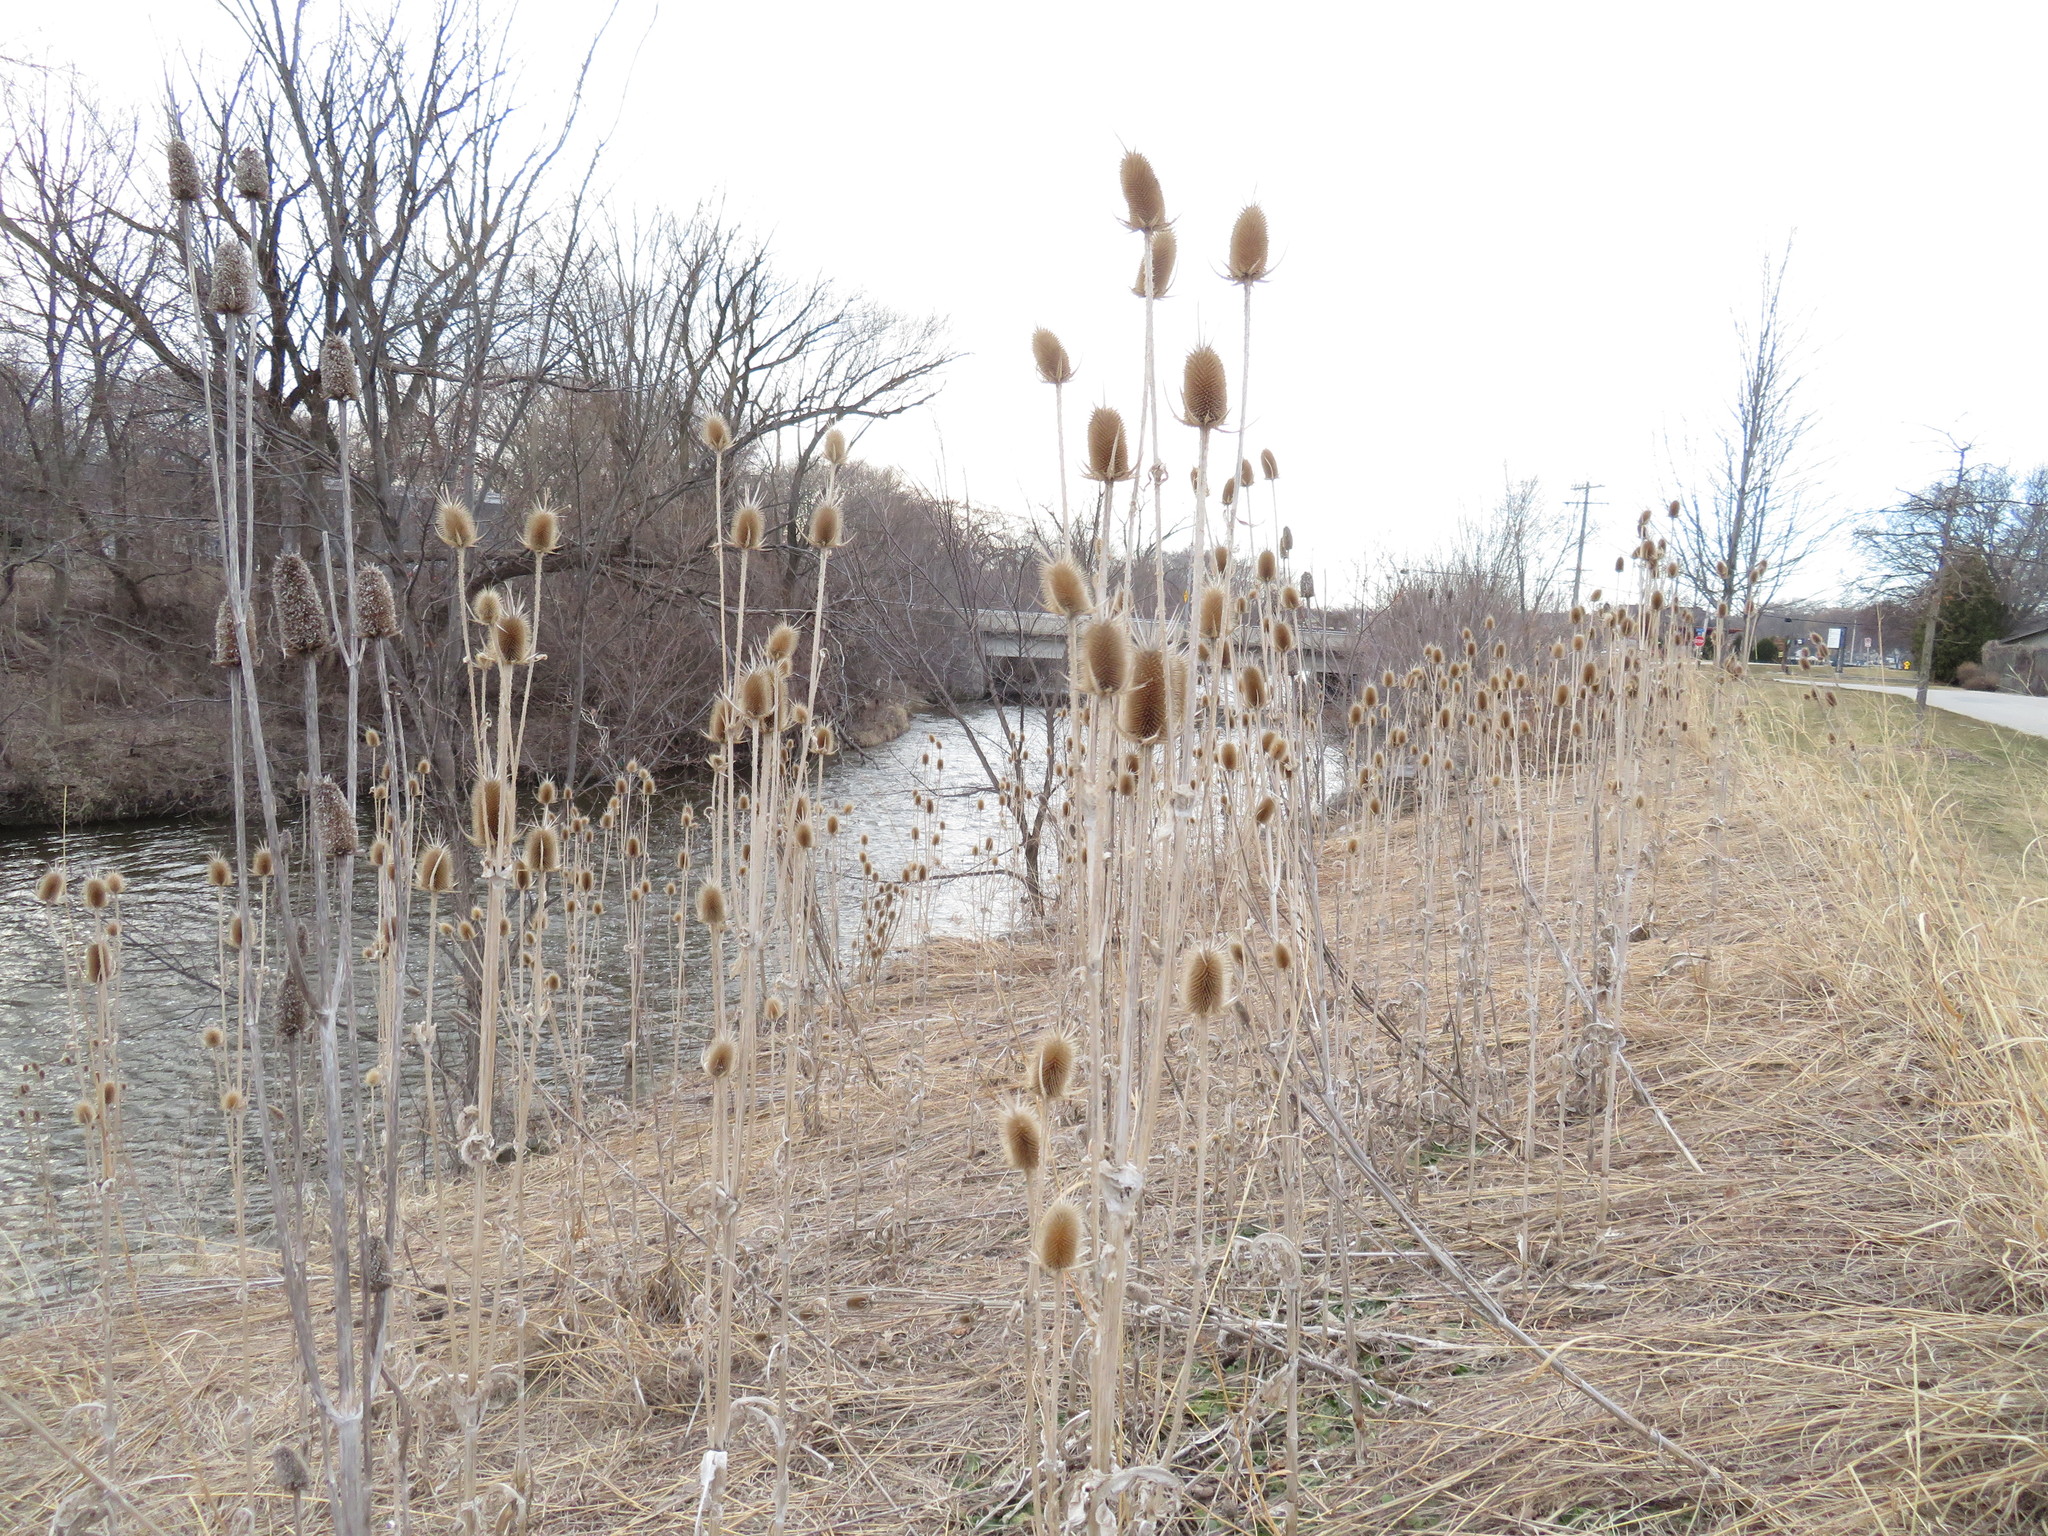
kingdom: Plantae
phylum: Tracheophyta
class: Magnoliopsida
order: Dipsacales
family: Caprifoliaceae
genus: Dipsacus
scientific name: Dipsacus laciniatus
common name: Cut-leaved teasel
